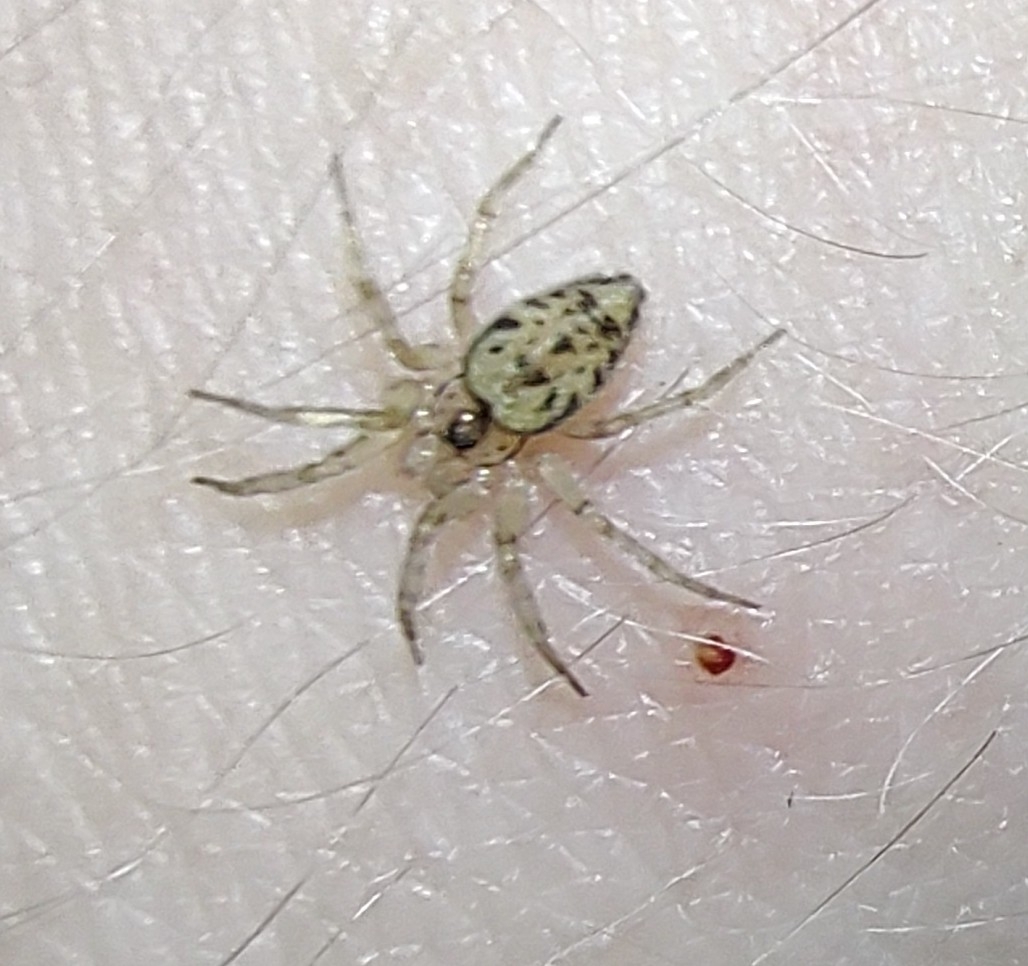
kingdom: Animalia
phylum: Arthropoda
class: Arachnida
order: Araneae
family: Oecobiidae
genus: Oecobius
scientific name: Oecobius navus
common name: Flatmesh weaver
